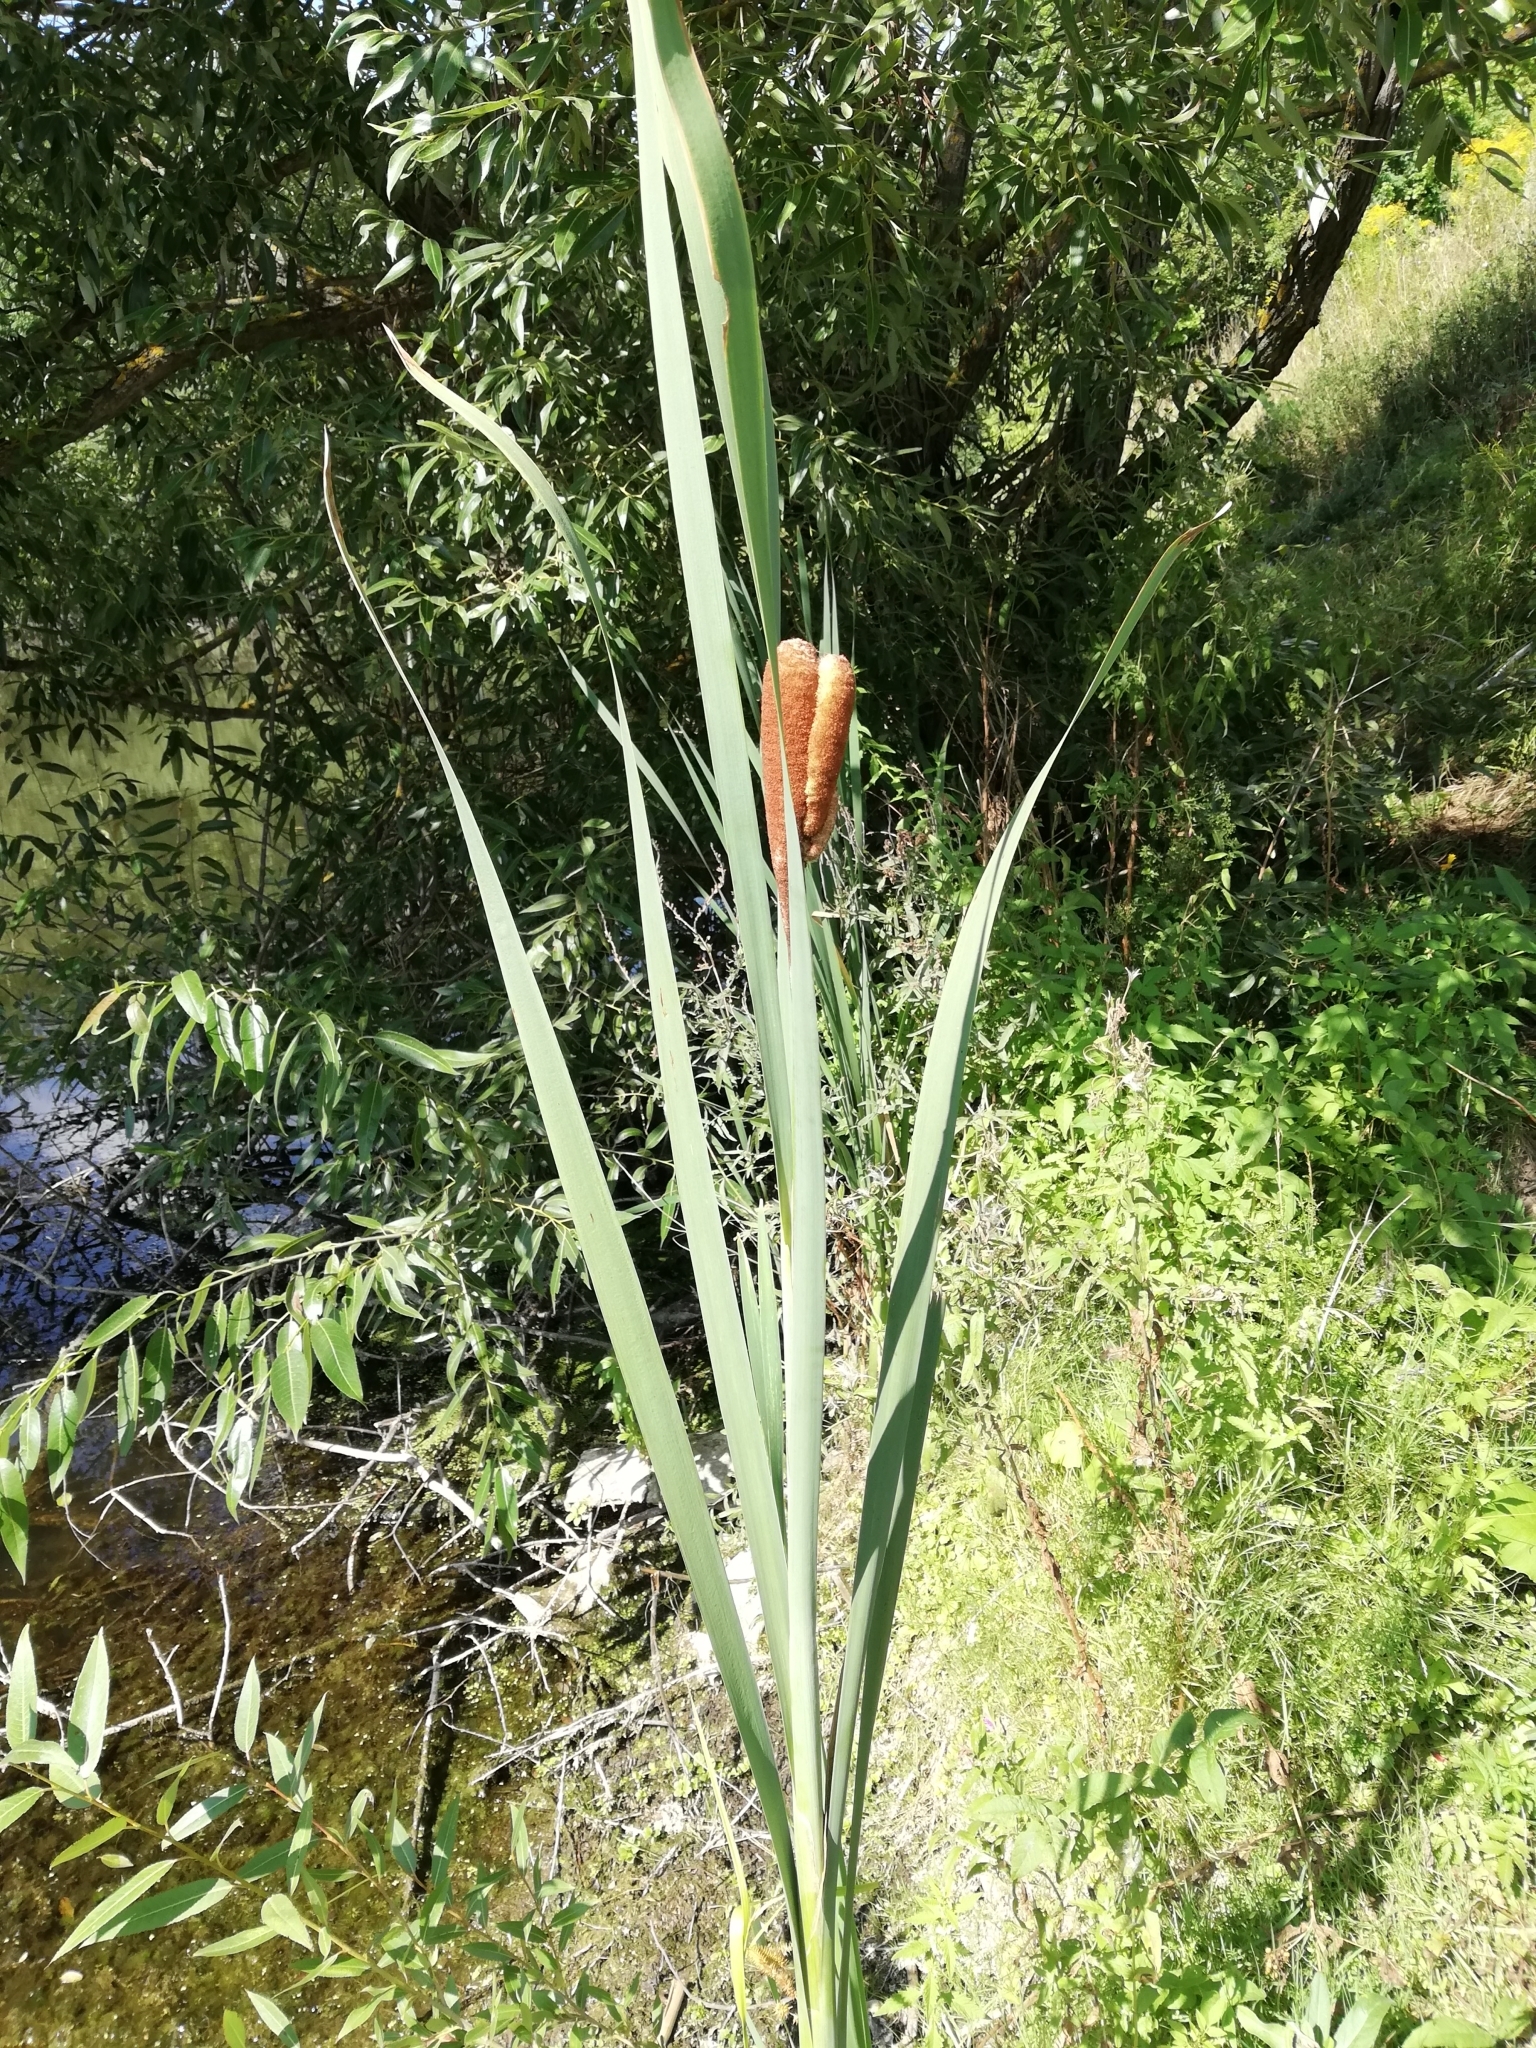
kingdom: Plantae
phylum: Tracheophyta
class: Liliopsida
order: Poales
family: Typhaceae
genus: Typha
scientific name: Typha latifolia
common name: Broadleaf cattail
